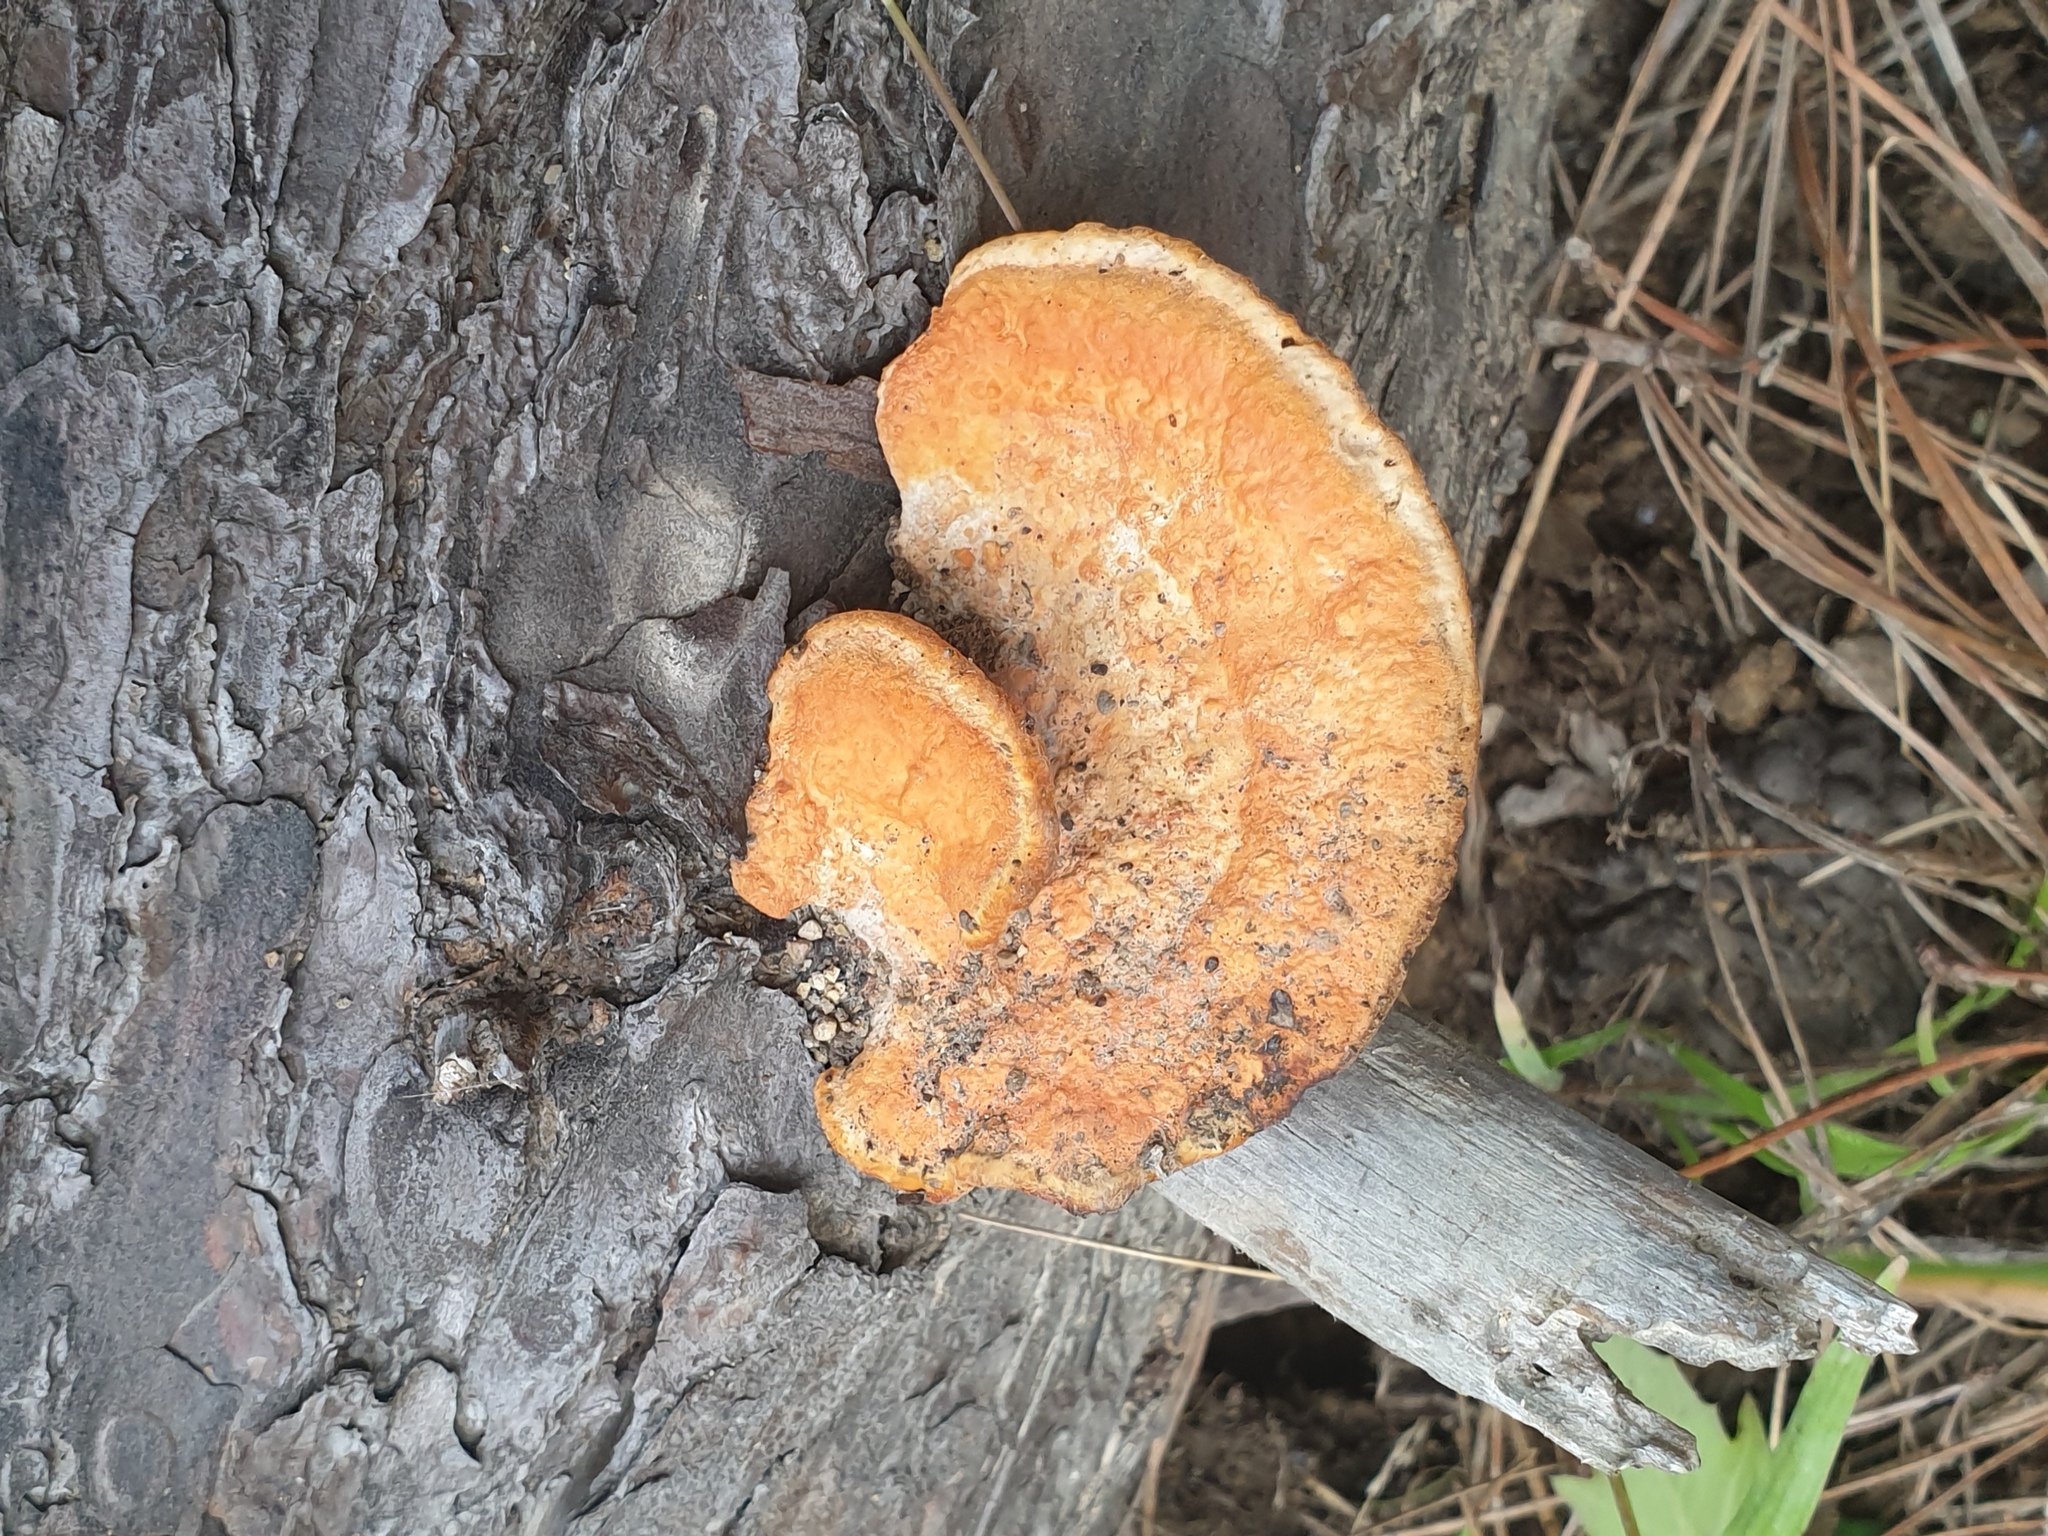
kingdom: Fungi
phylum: Basidiomycota
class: Agaricomycetes
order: Polyporales
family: Polyporaceae
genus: Trametes
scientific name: Trametes coccinea
